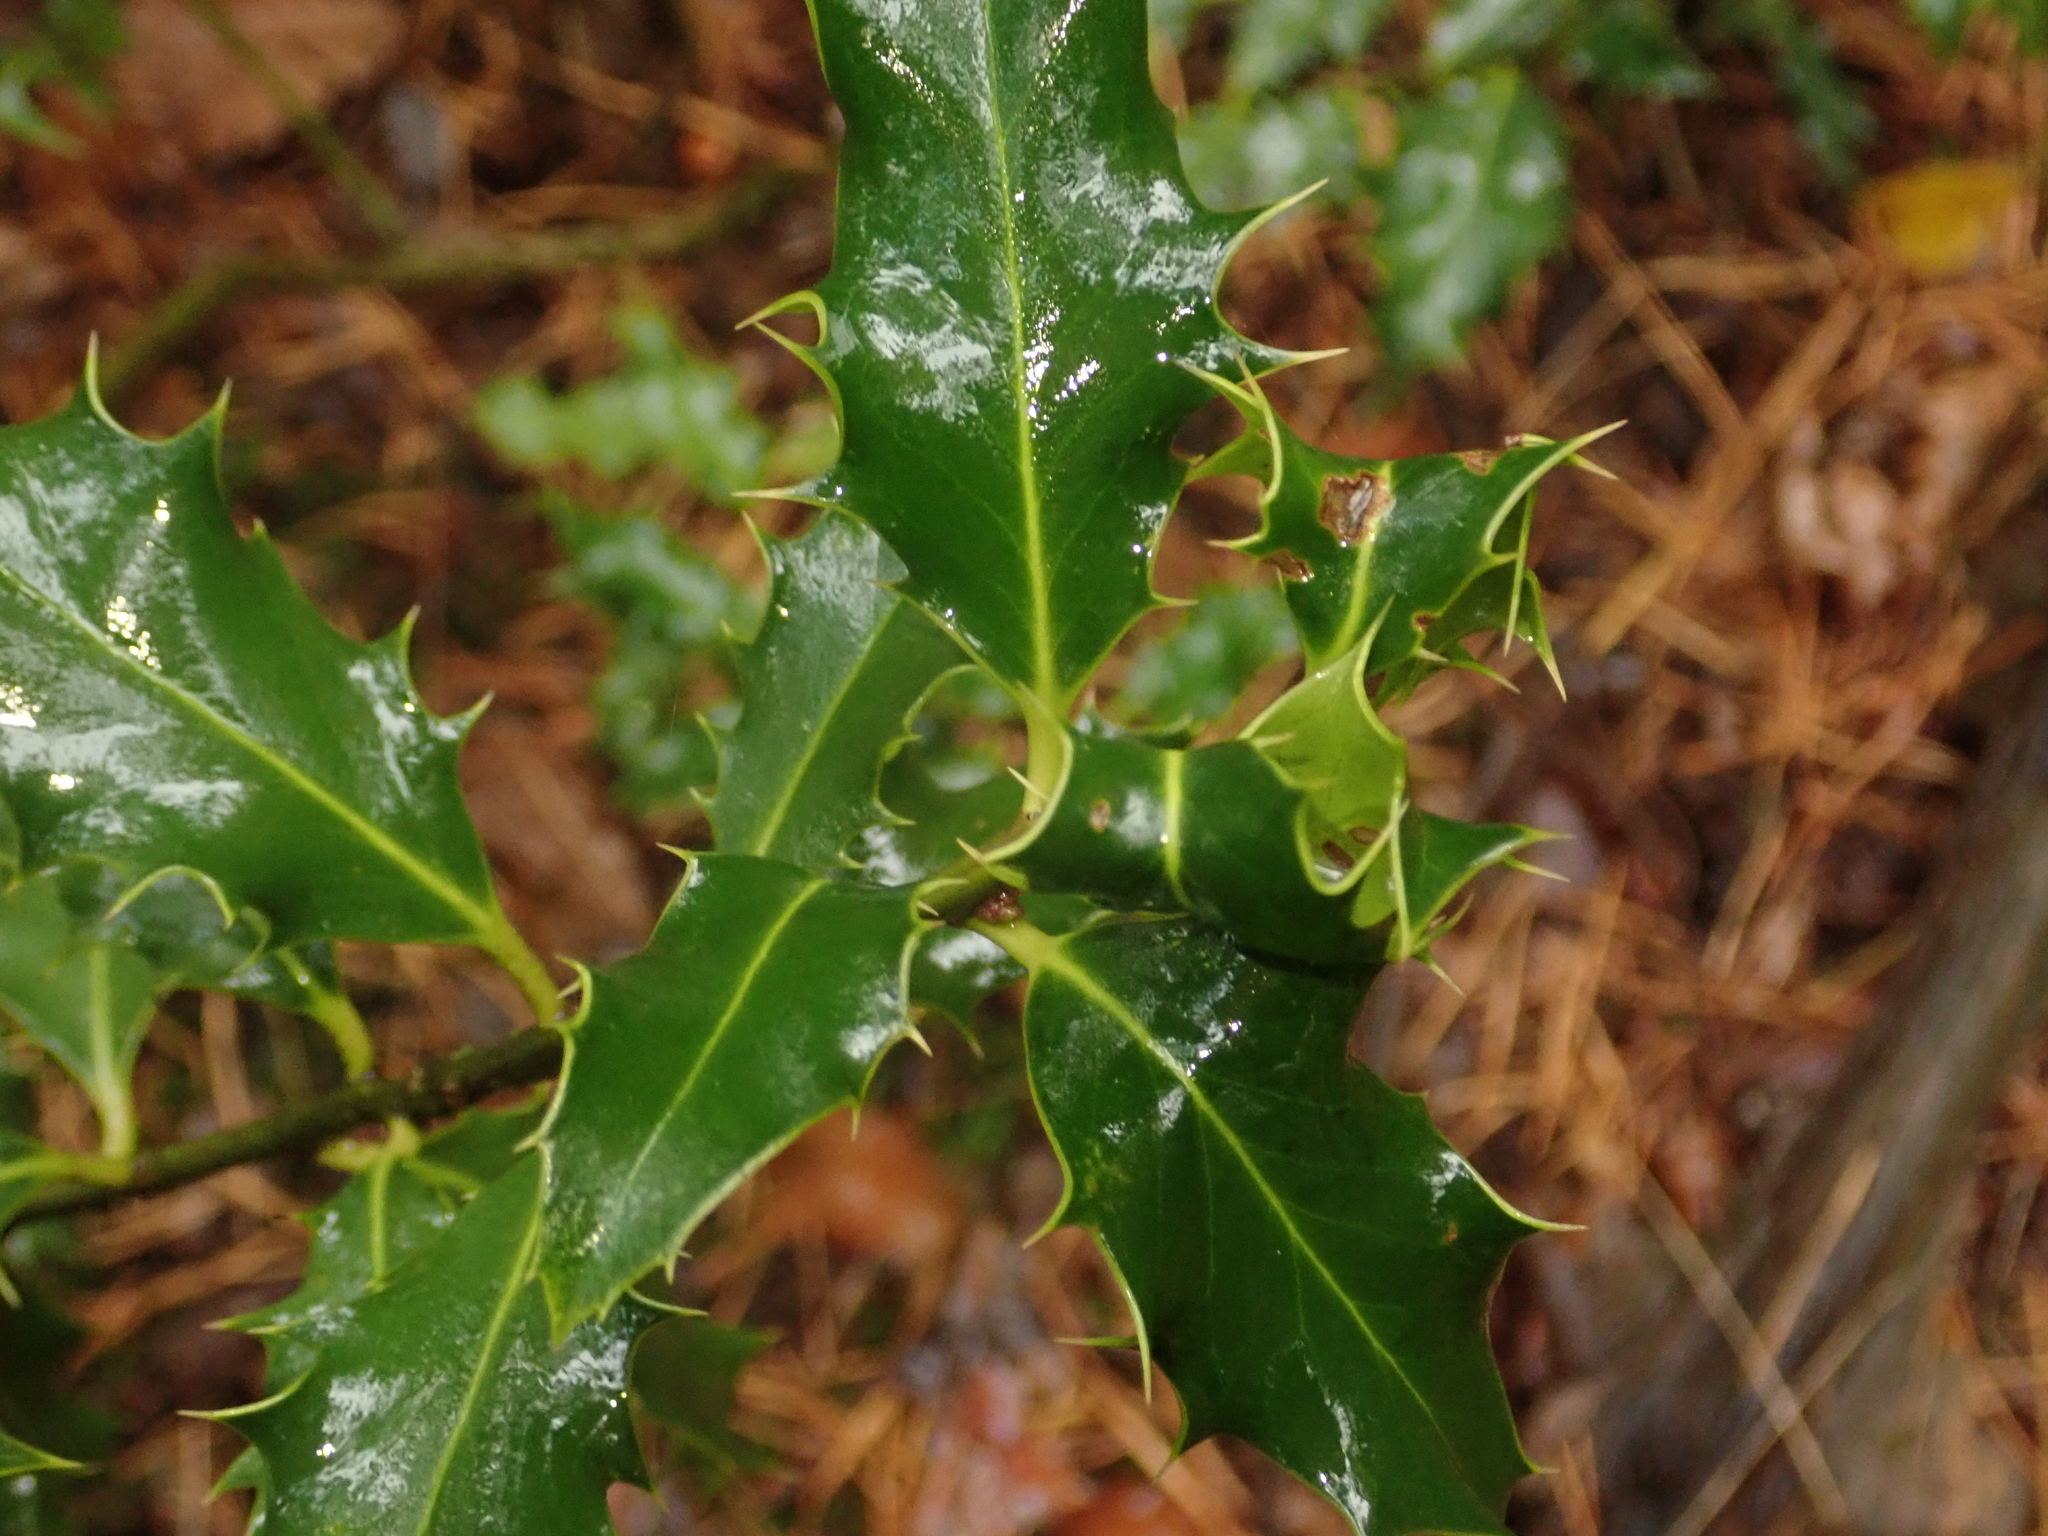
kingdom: Plantae
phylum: Tracheophyta
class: Magnoliopsida
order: Aquifoliales
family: Aquifoliaceae
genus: Ilex
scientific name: Ilex aquifolium
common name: English holly
